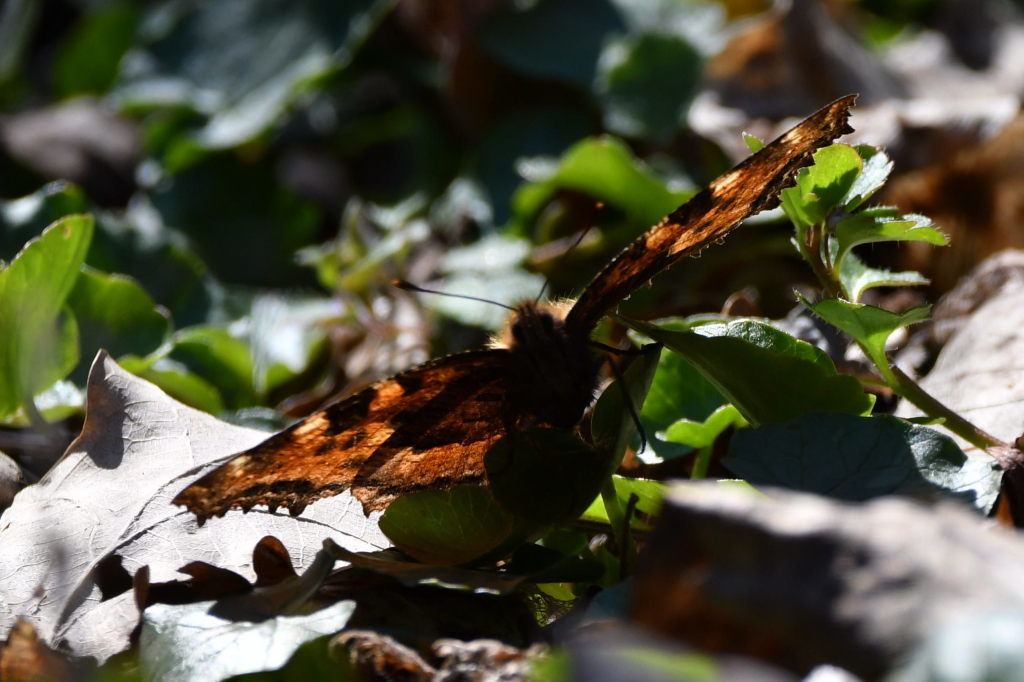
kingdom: Animalia
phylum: Arthropoda
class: Insecta
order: Lepidoptera
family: Nymphalidae
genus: Nymphalis
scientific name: Nymphalis polychloros
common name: Large tortoiseshell
